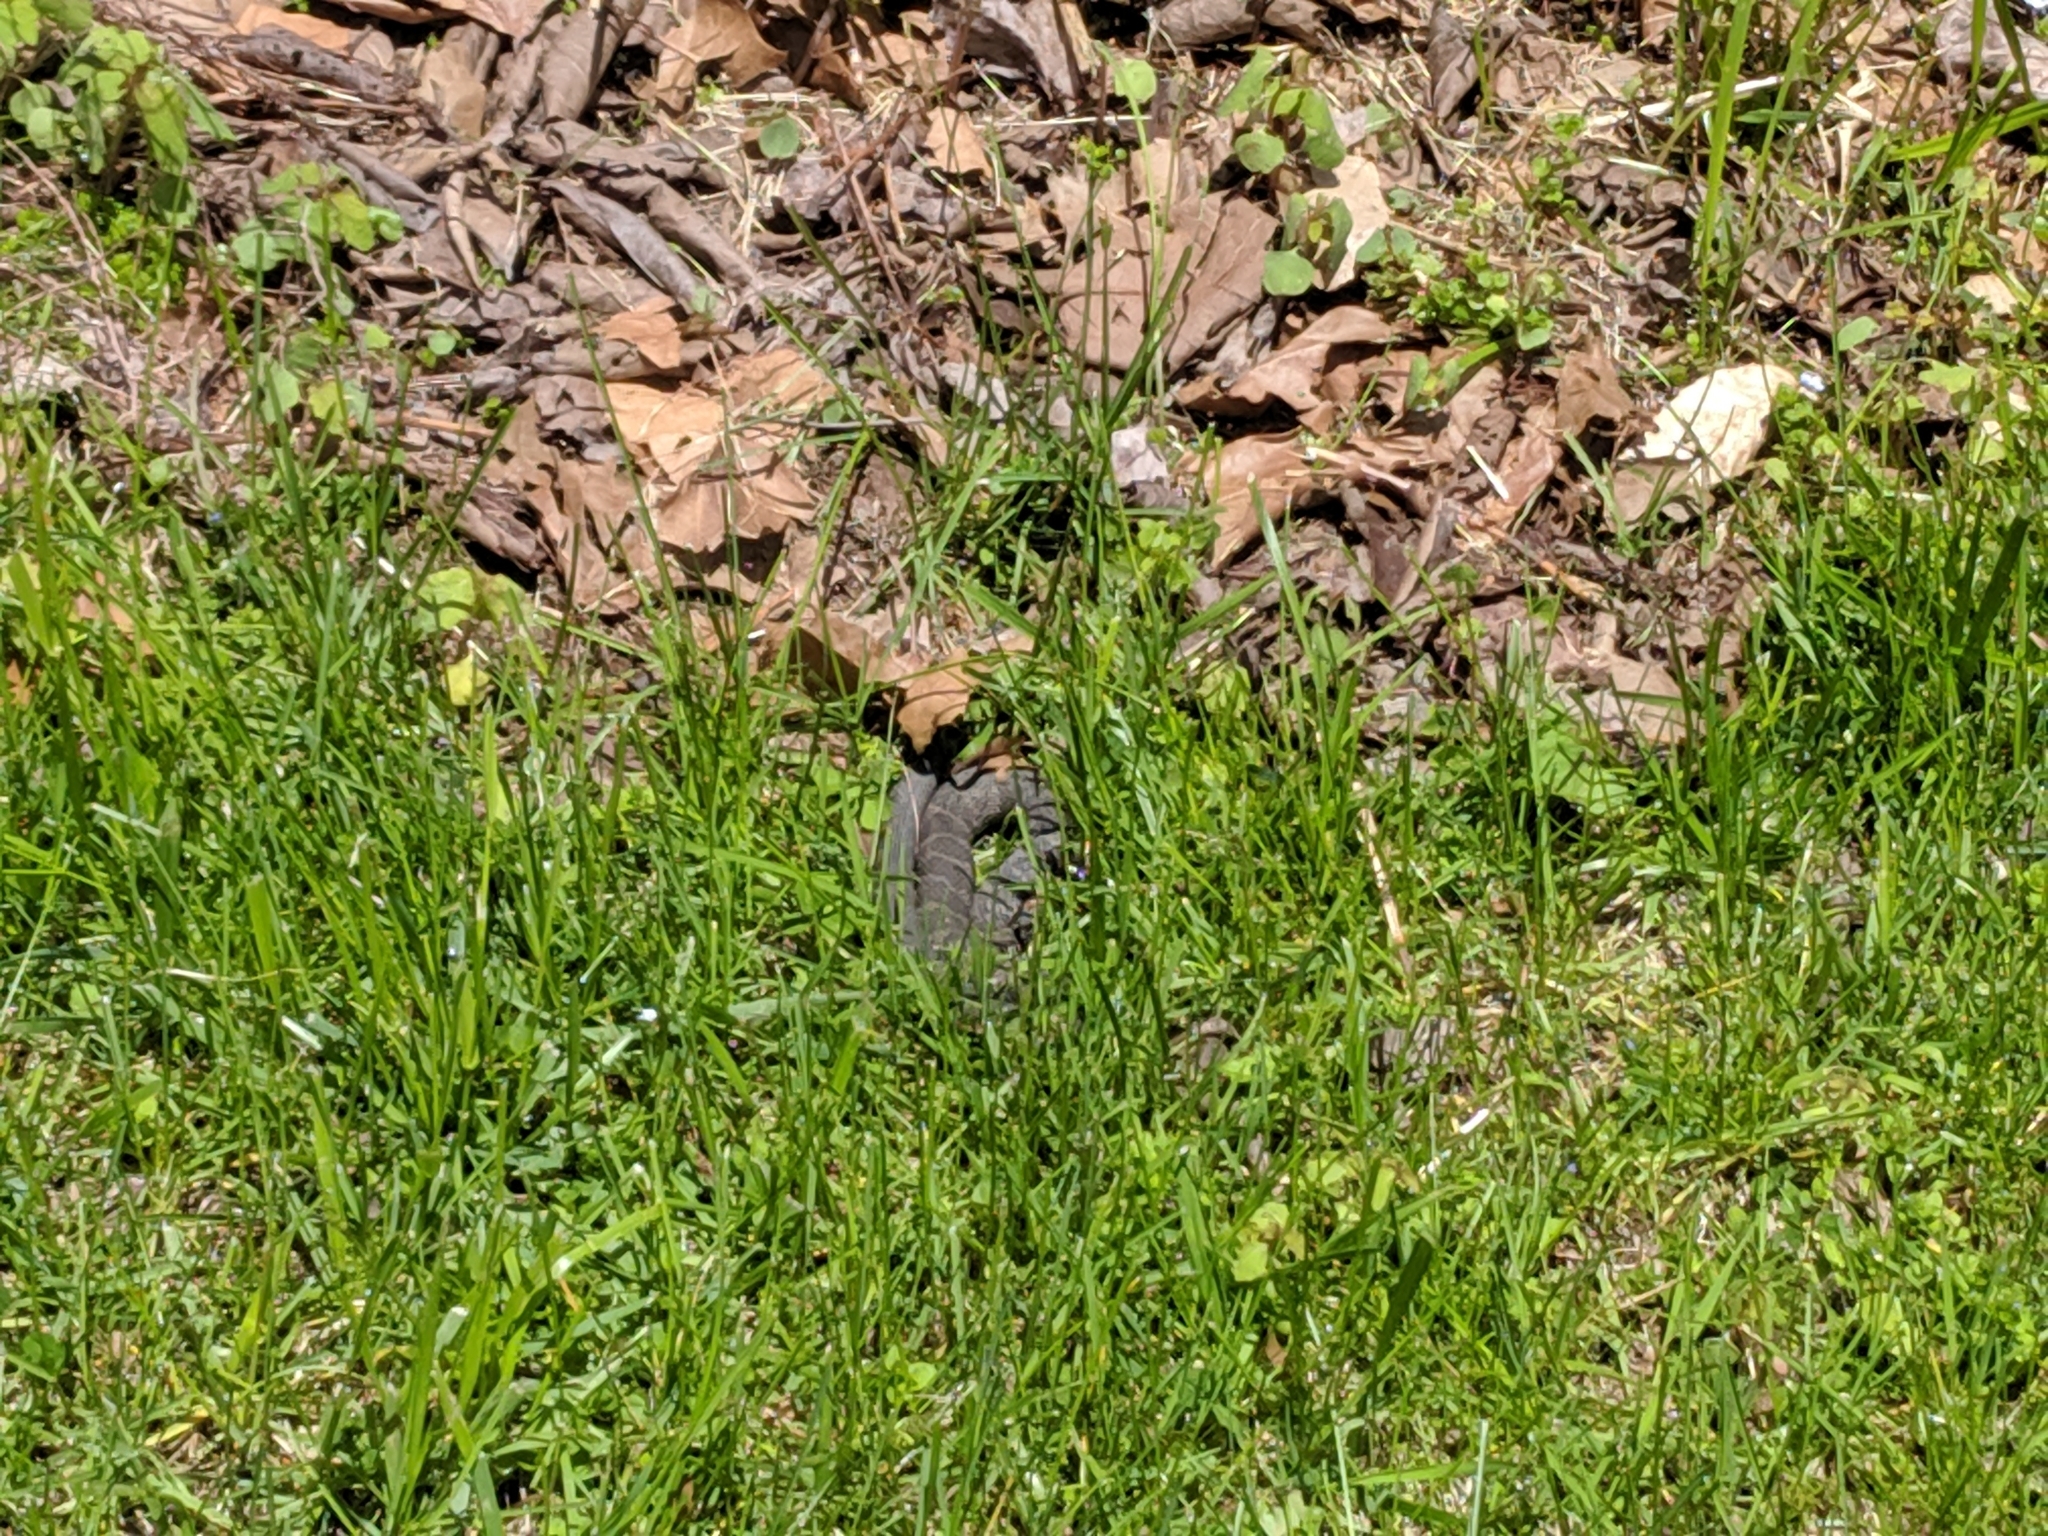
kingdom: Animalia
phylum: Chordata
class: Squamata
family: Colubridae
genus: Nerodia
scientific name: Nerodia sipedon
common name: Northern water snake
